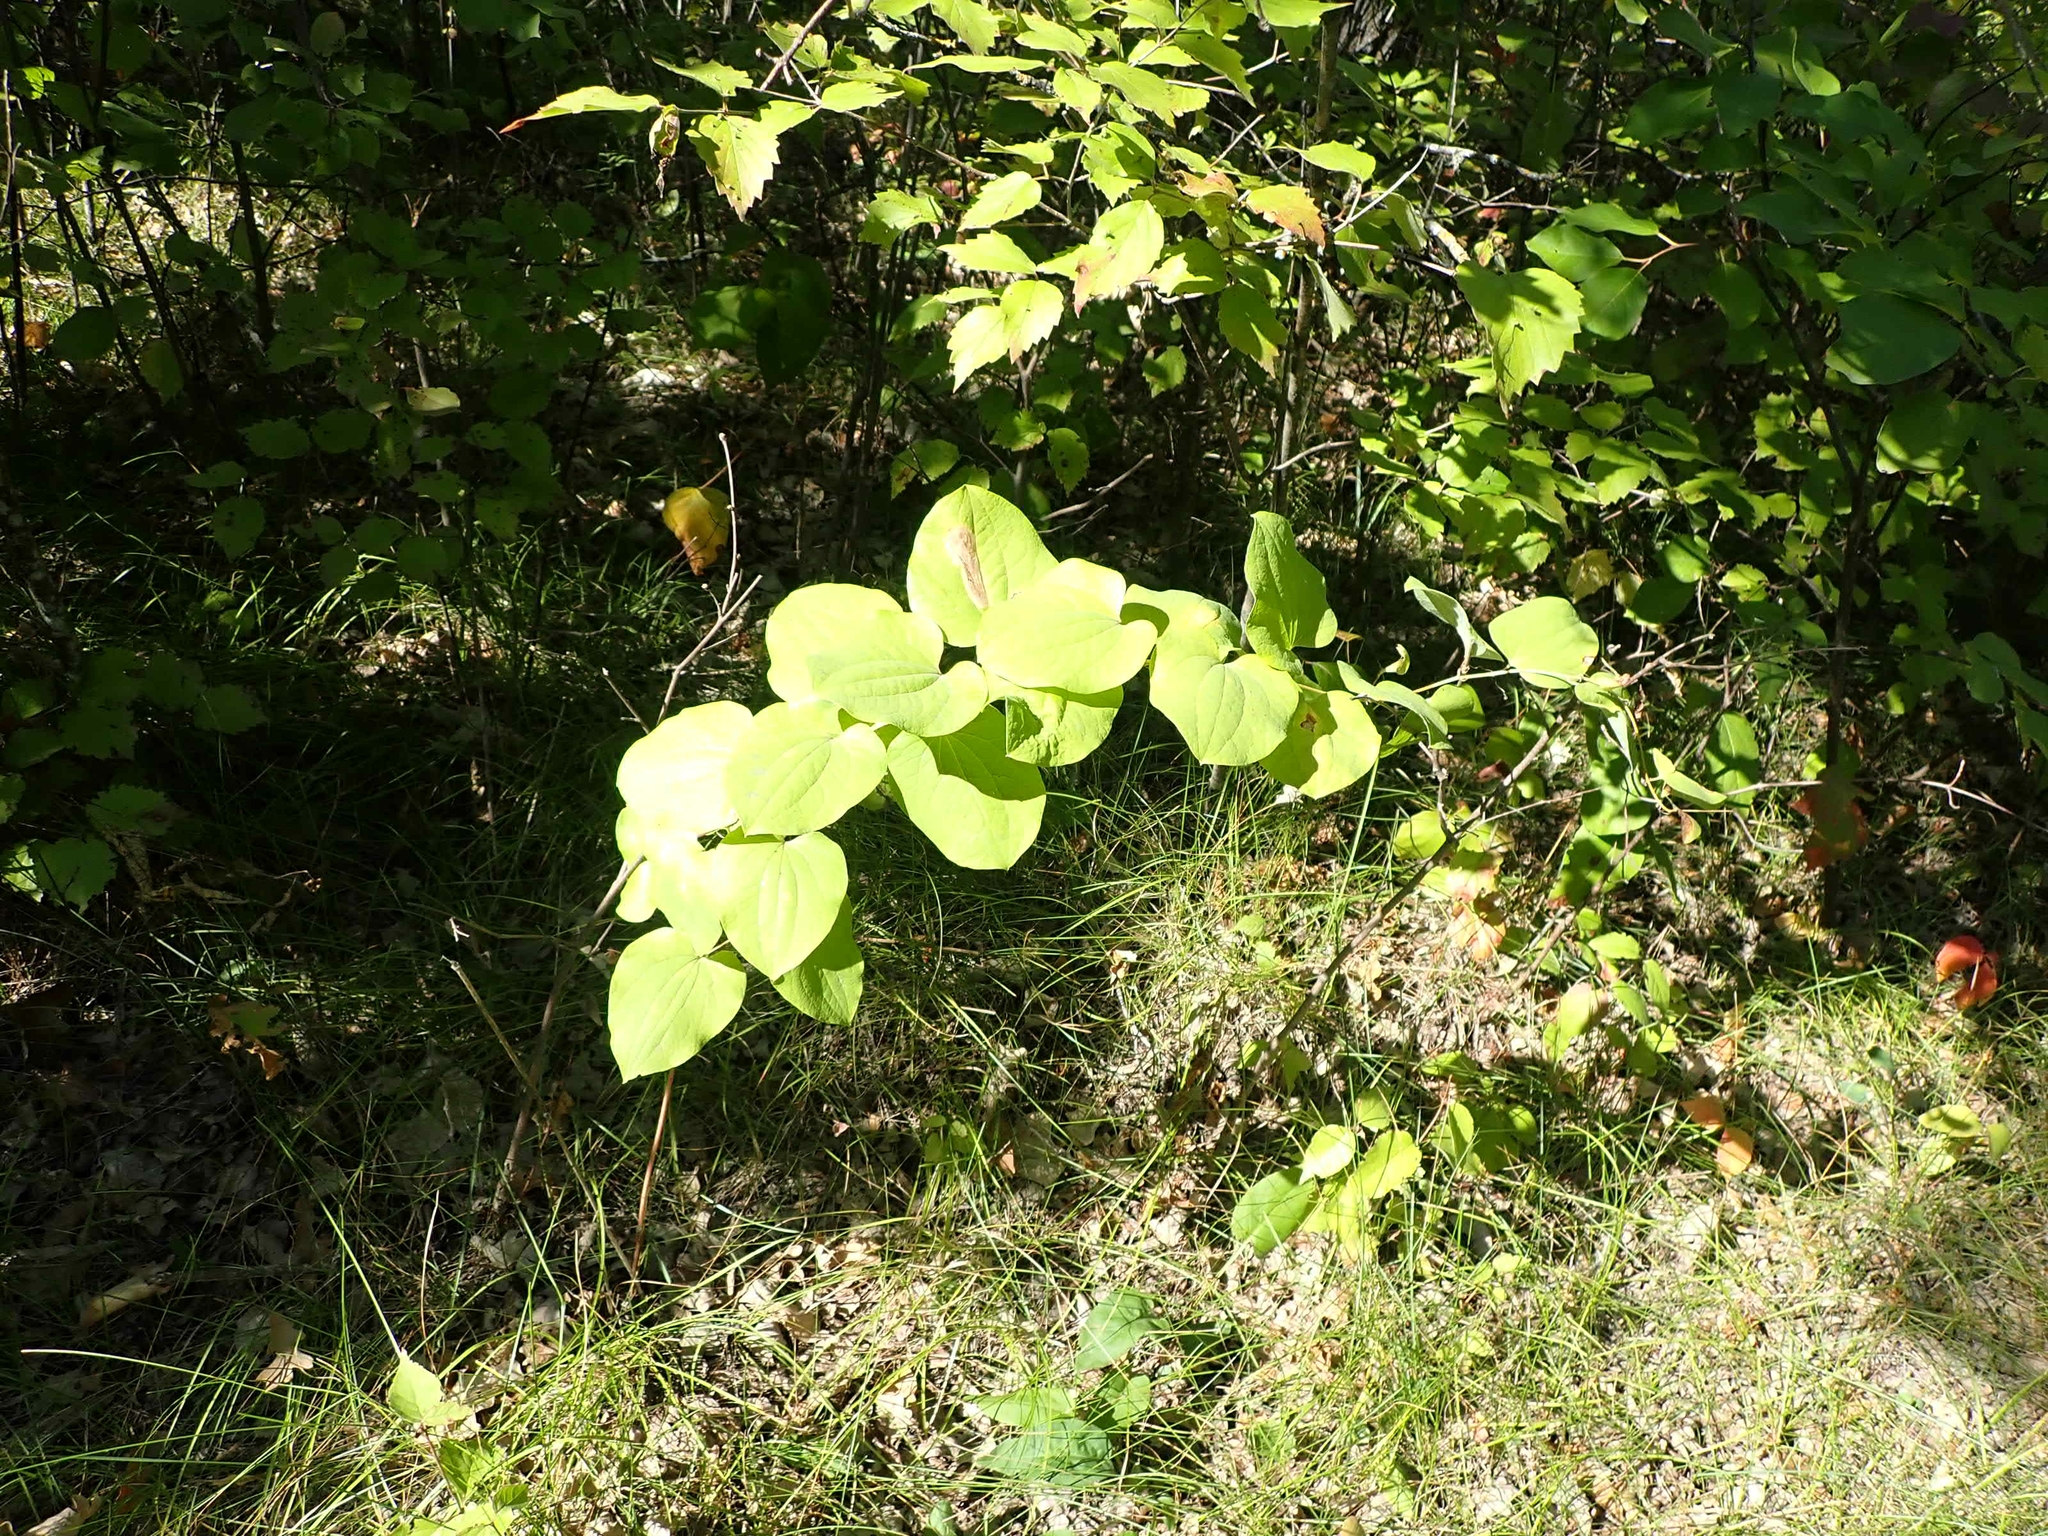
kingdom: Plantae
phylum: Tracheophyta
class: Liliopsida
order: Liliales
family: Smilacaceae
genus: Smilax
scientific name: Smilax lasioneura
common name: Blue ridge carrionflower
